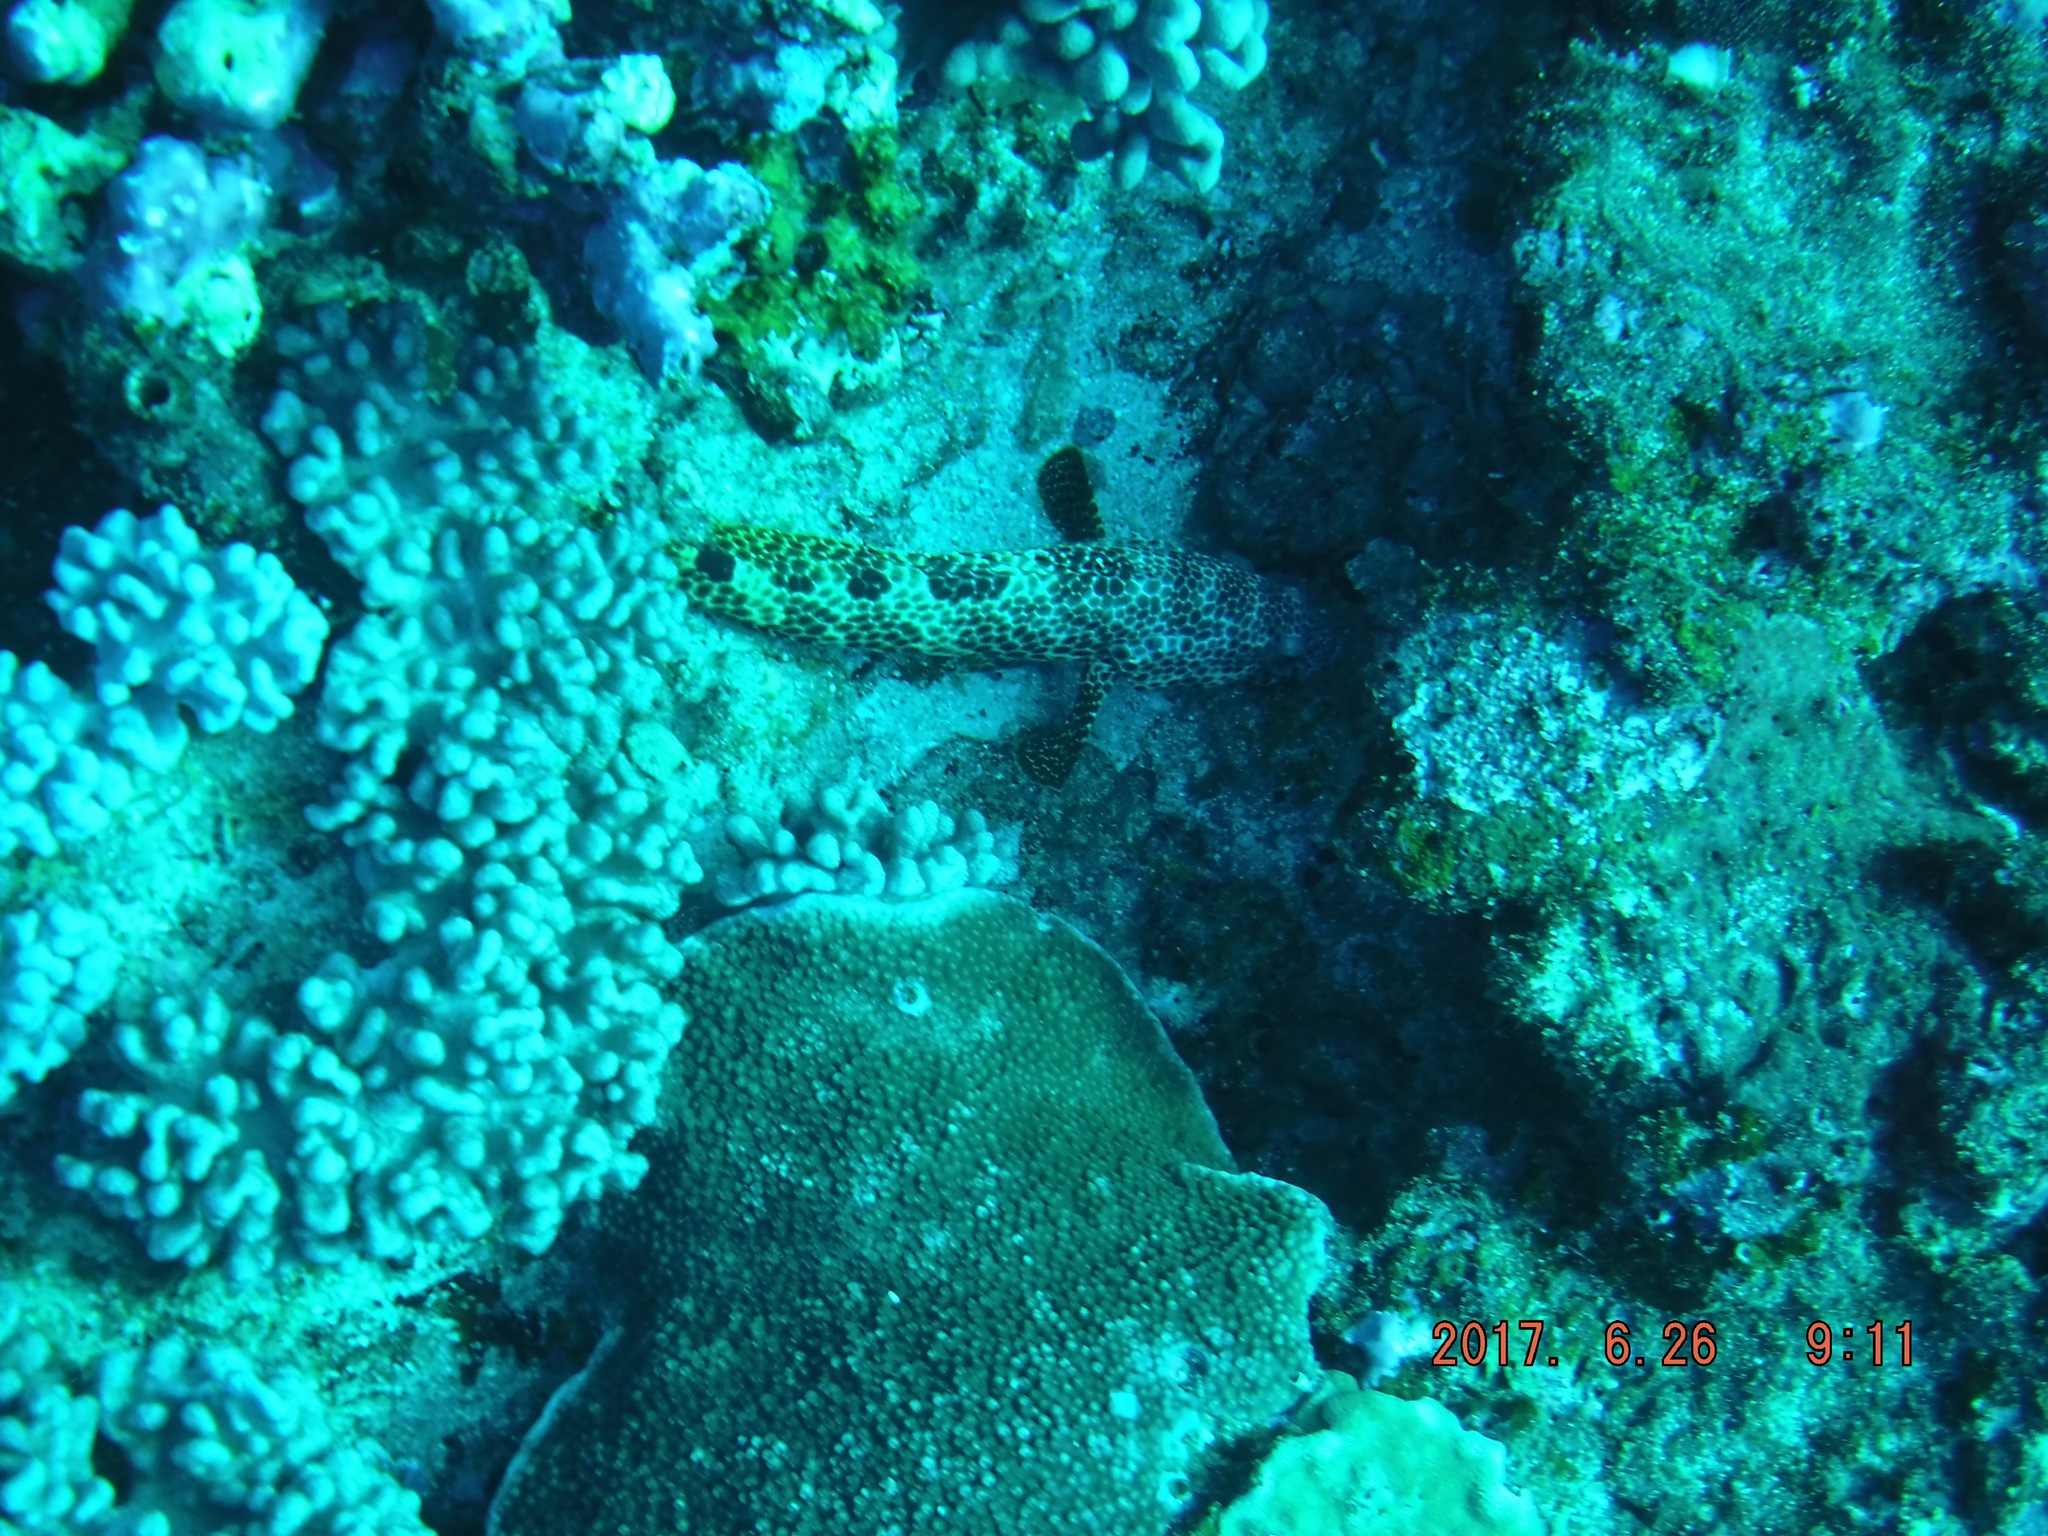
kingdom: Animalia
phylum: Chordata
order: Perciformes
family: Serranidae
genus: Epinephelus
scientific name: Epinephelus spilotoceps
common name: Foursaddle grouper
